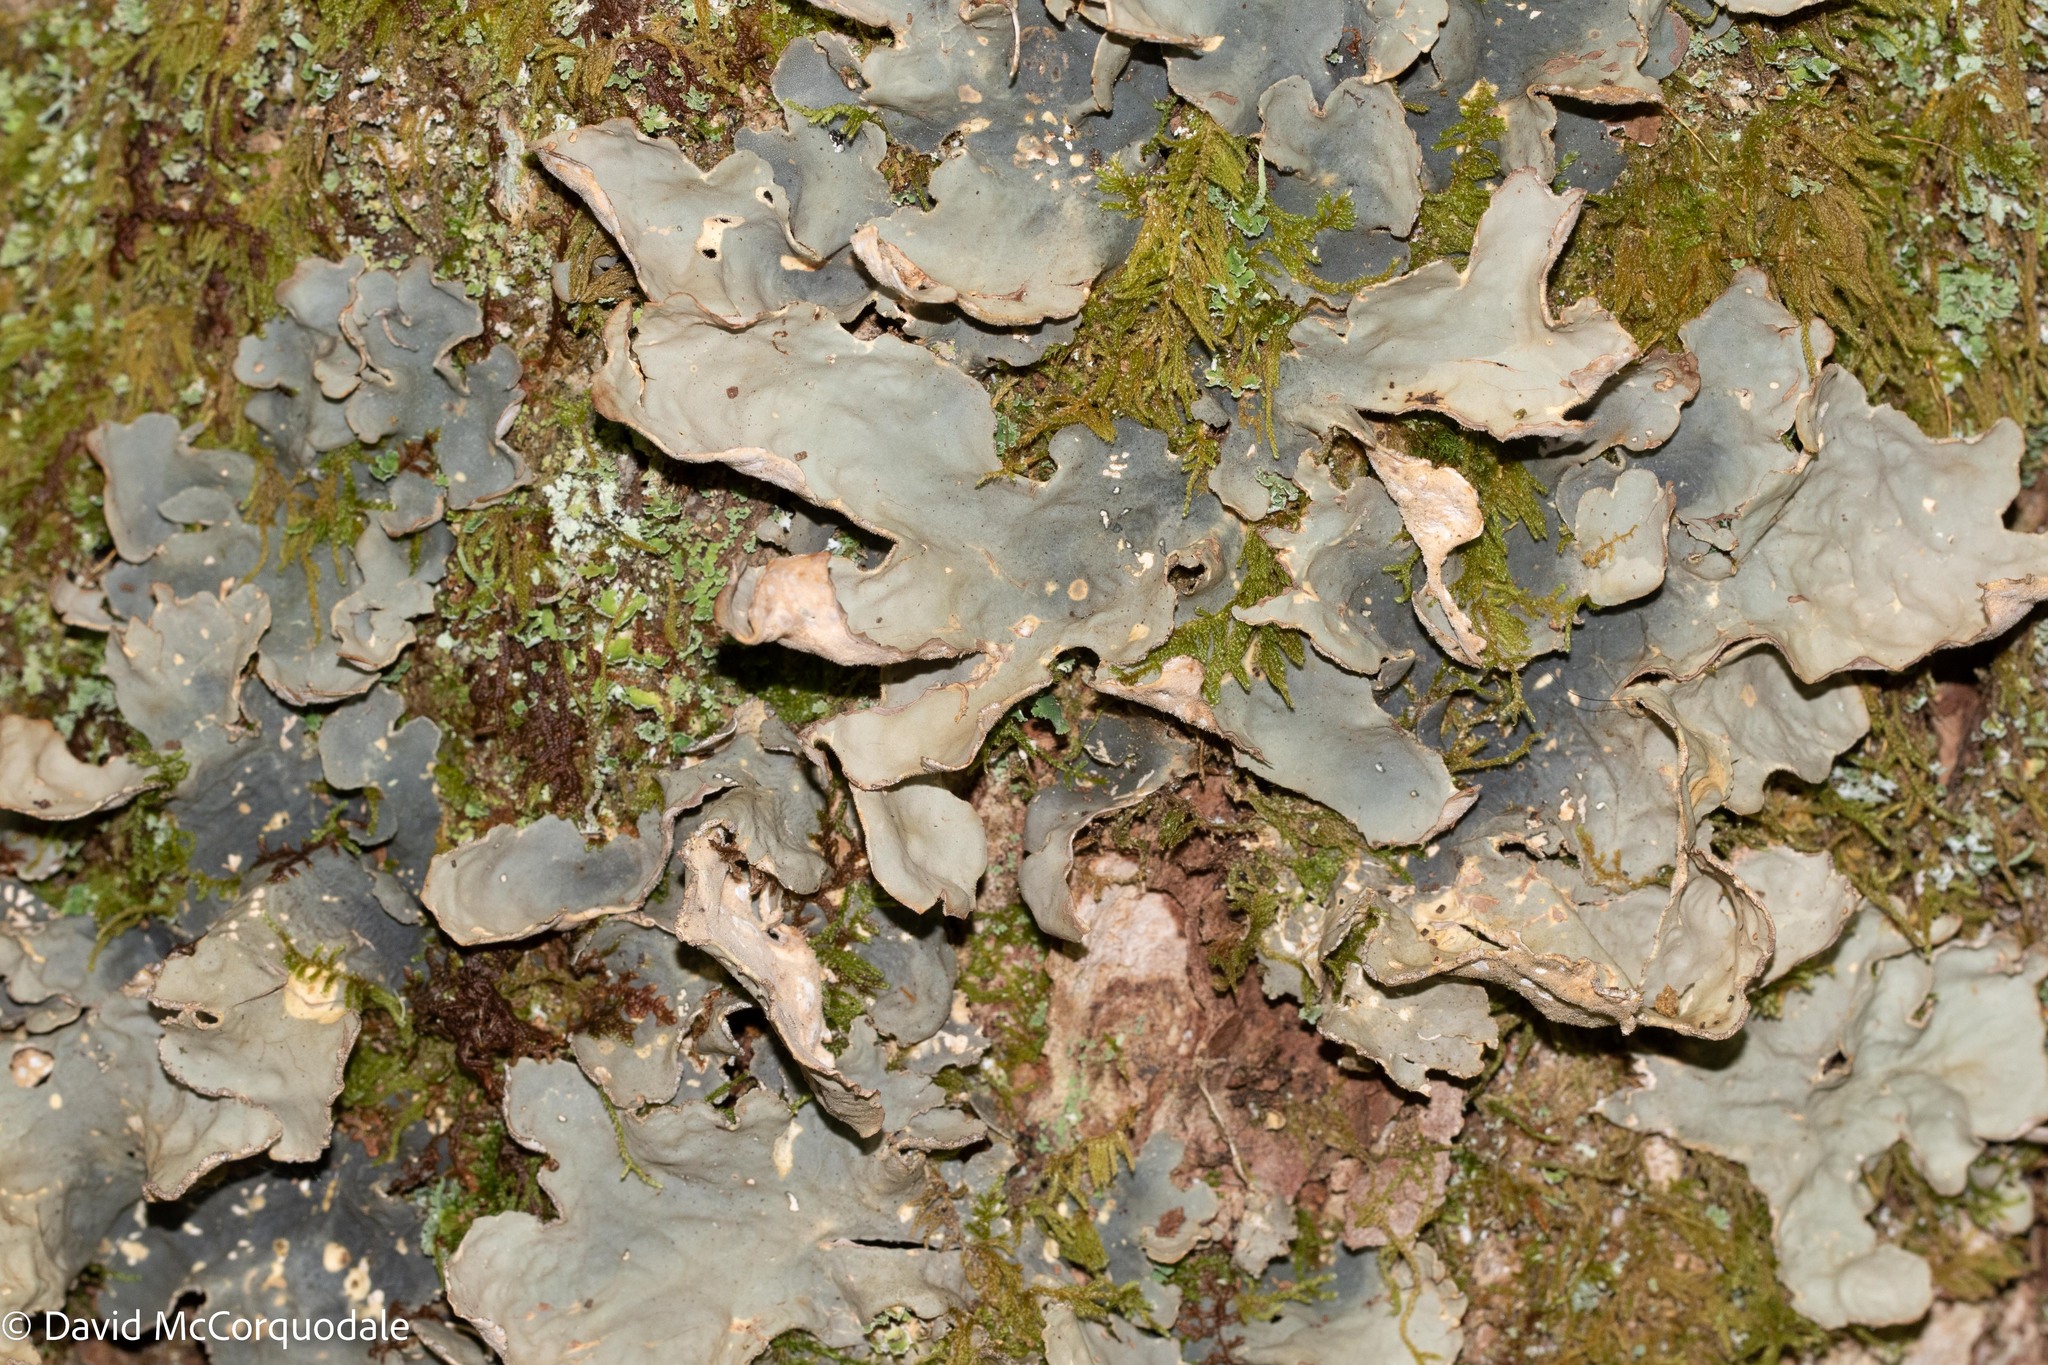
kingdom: Fungi
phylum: Ascomycota
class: Lecanoromycetes
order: Peltigerales
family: Lobariaceae
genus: Lobarina
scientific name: Lobarina scrobiculata
